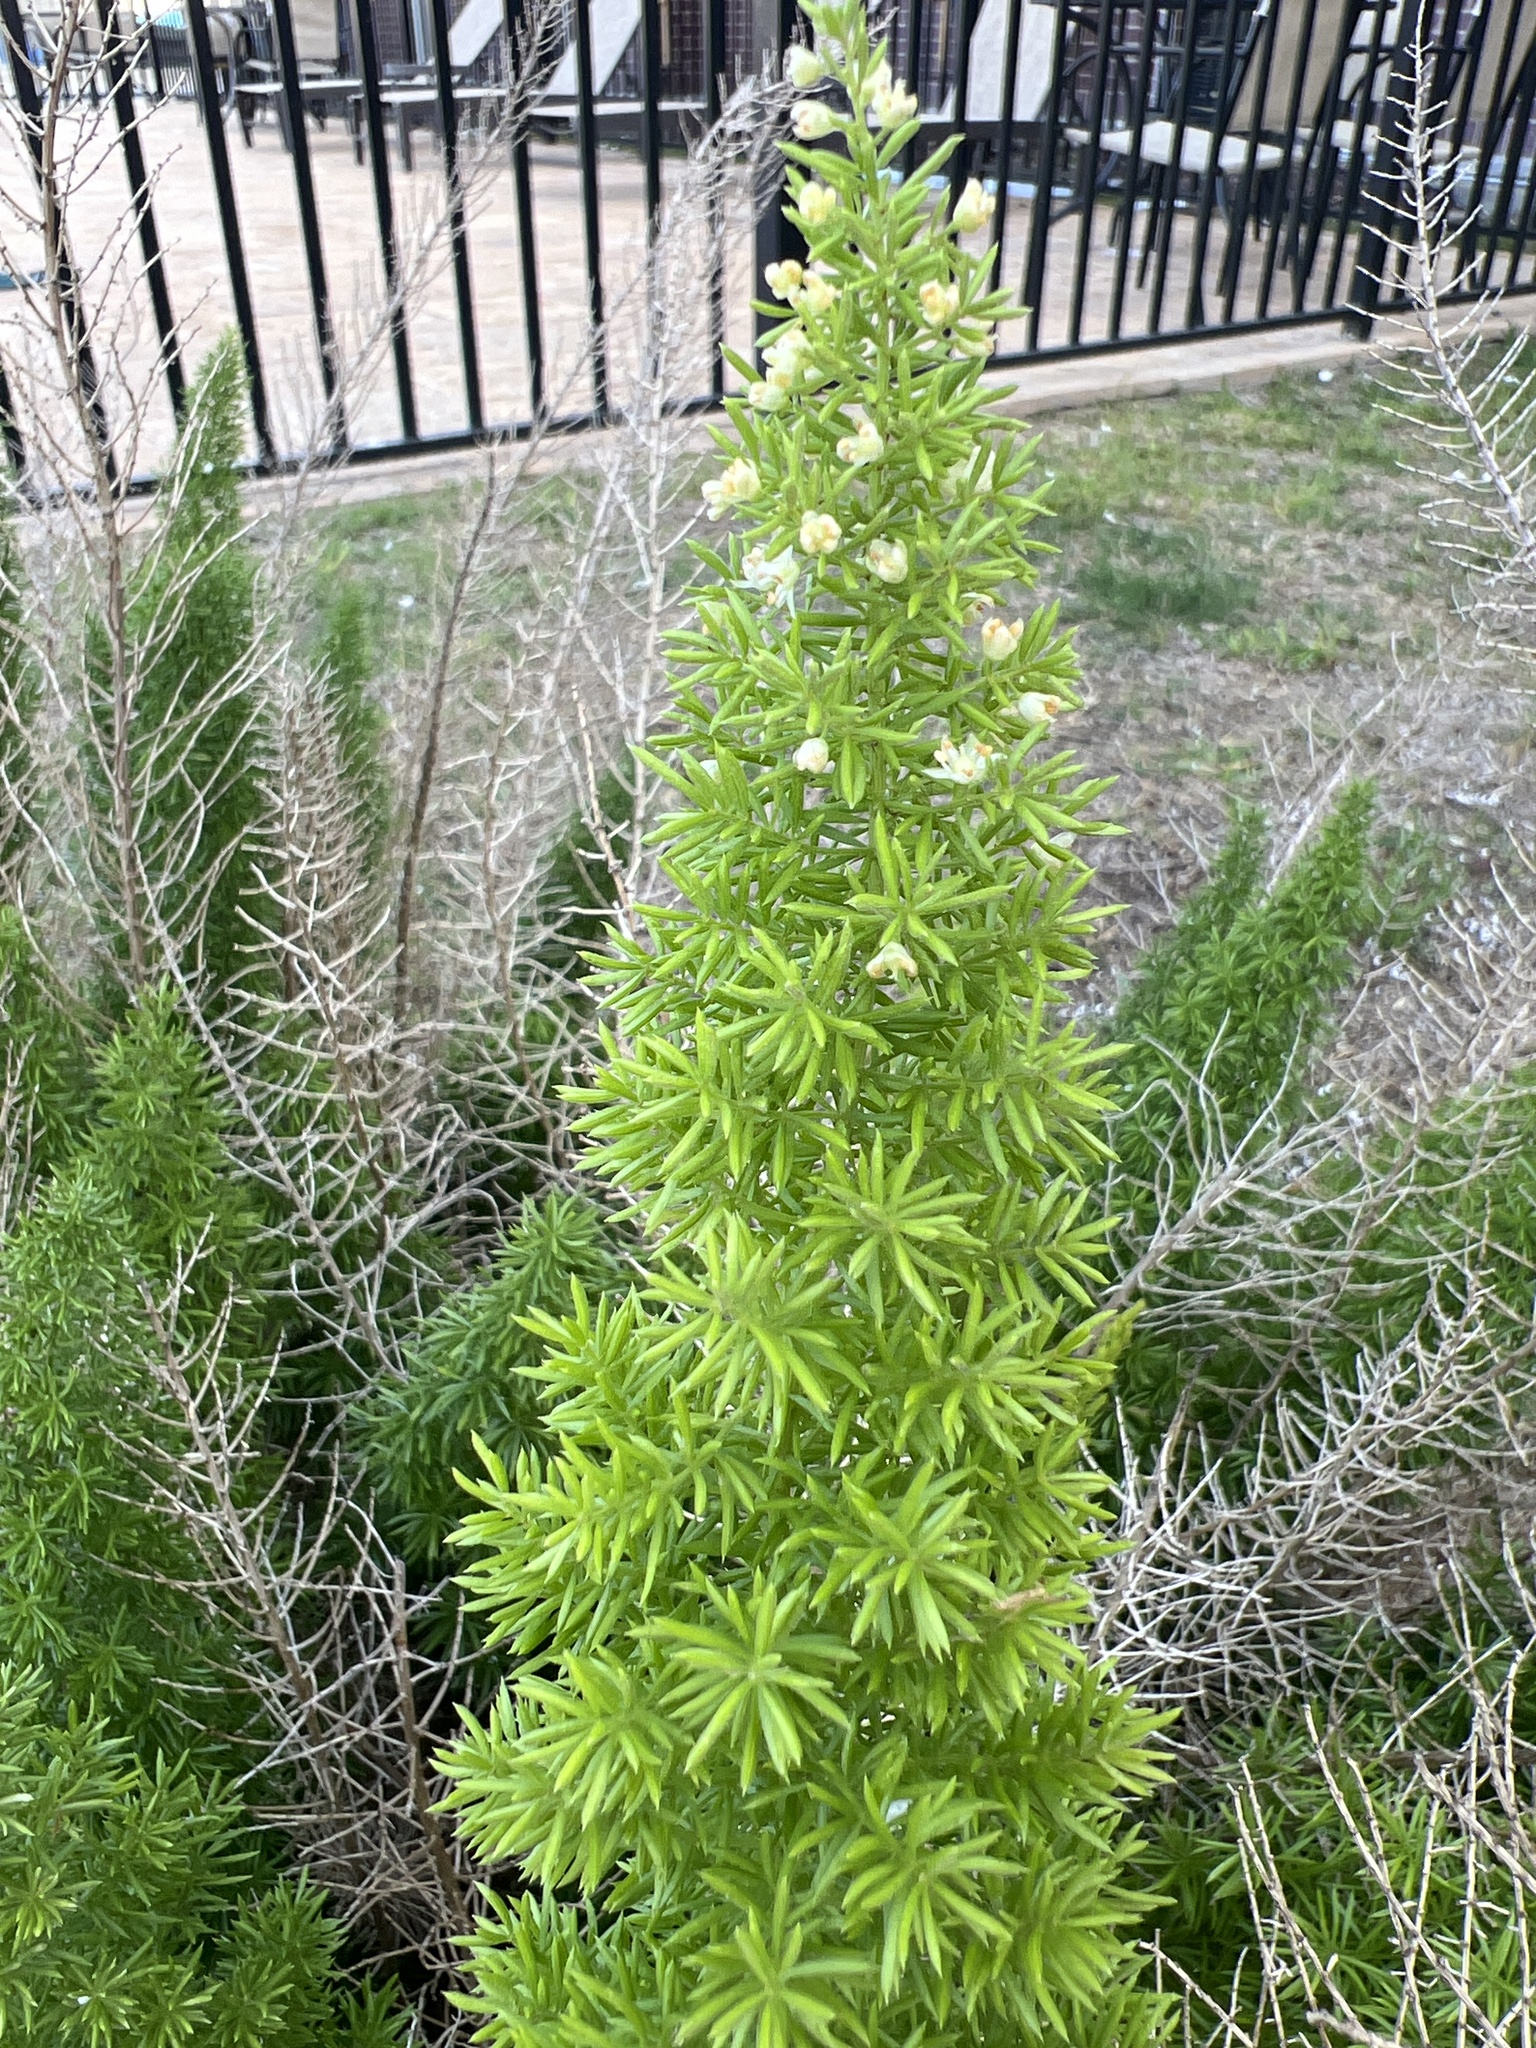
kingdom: Plantae
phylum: Tracheophyta
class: Liliopsida
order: Asparagales
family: Asparagaceae
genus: Asparagus
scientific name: Asparagus densiflorus
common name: Asparagus fern
